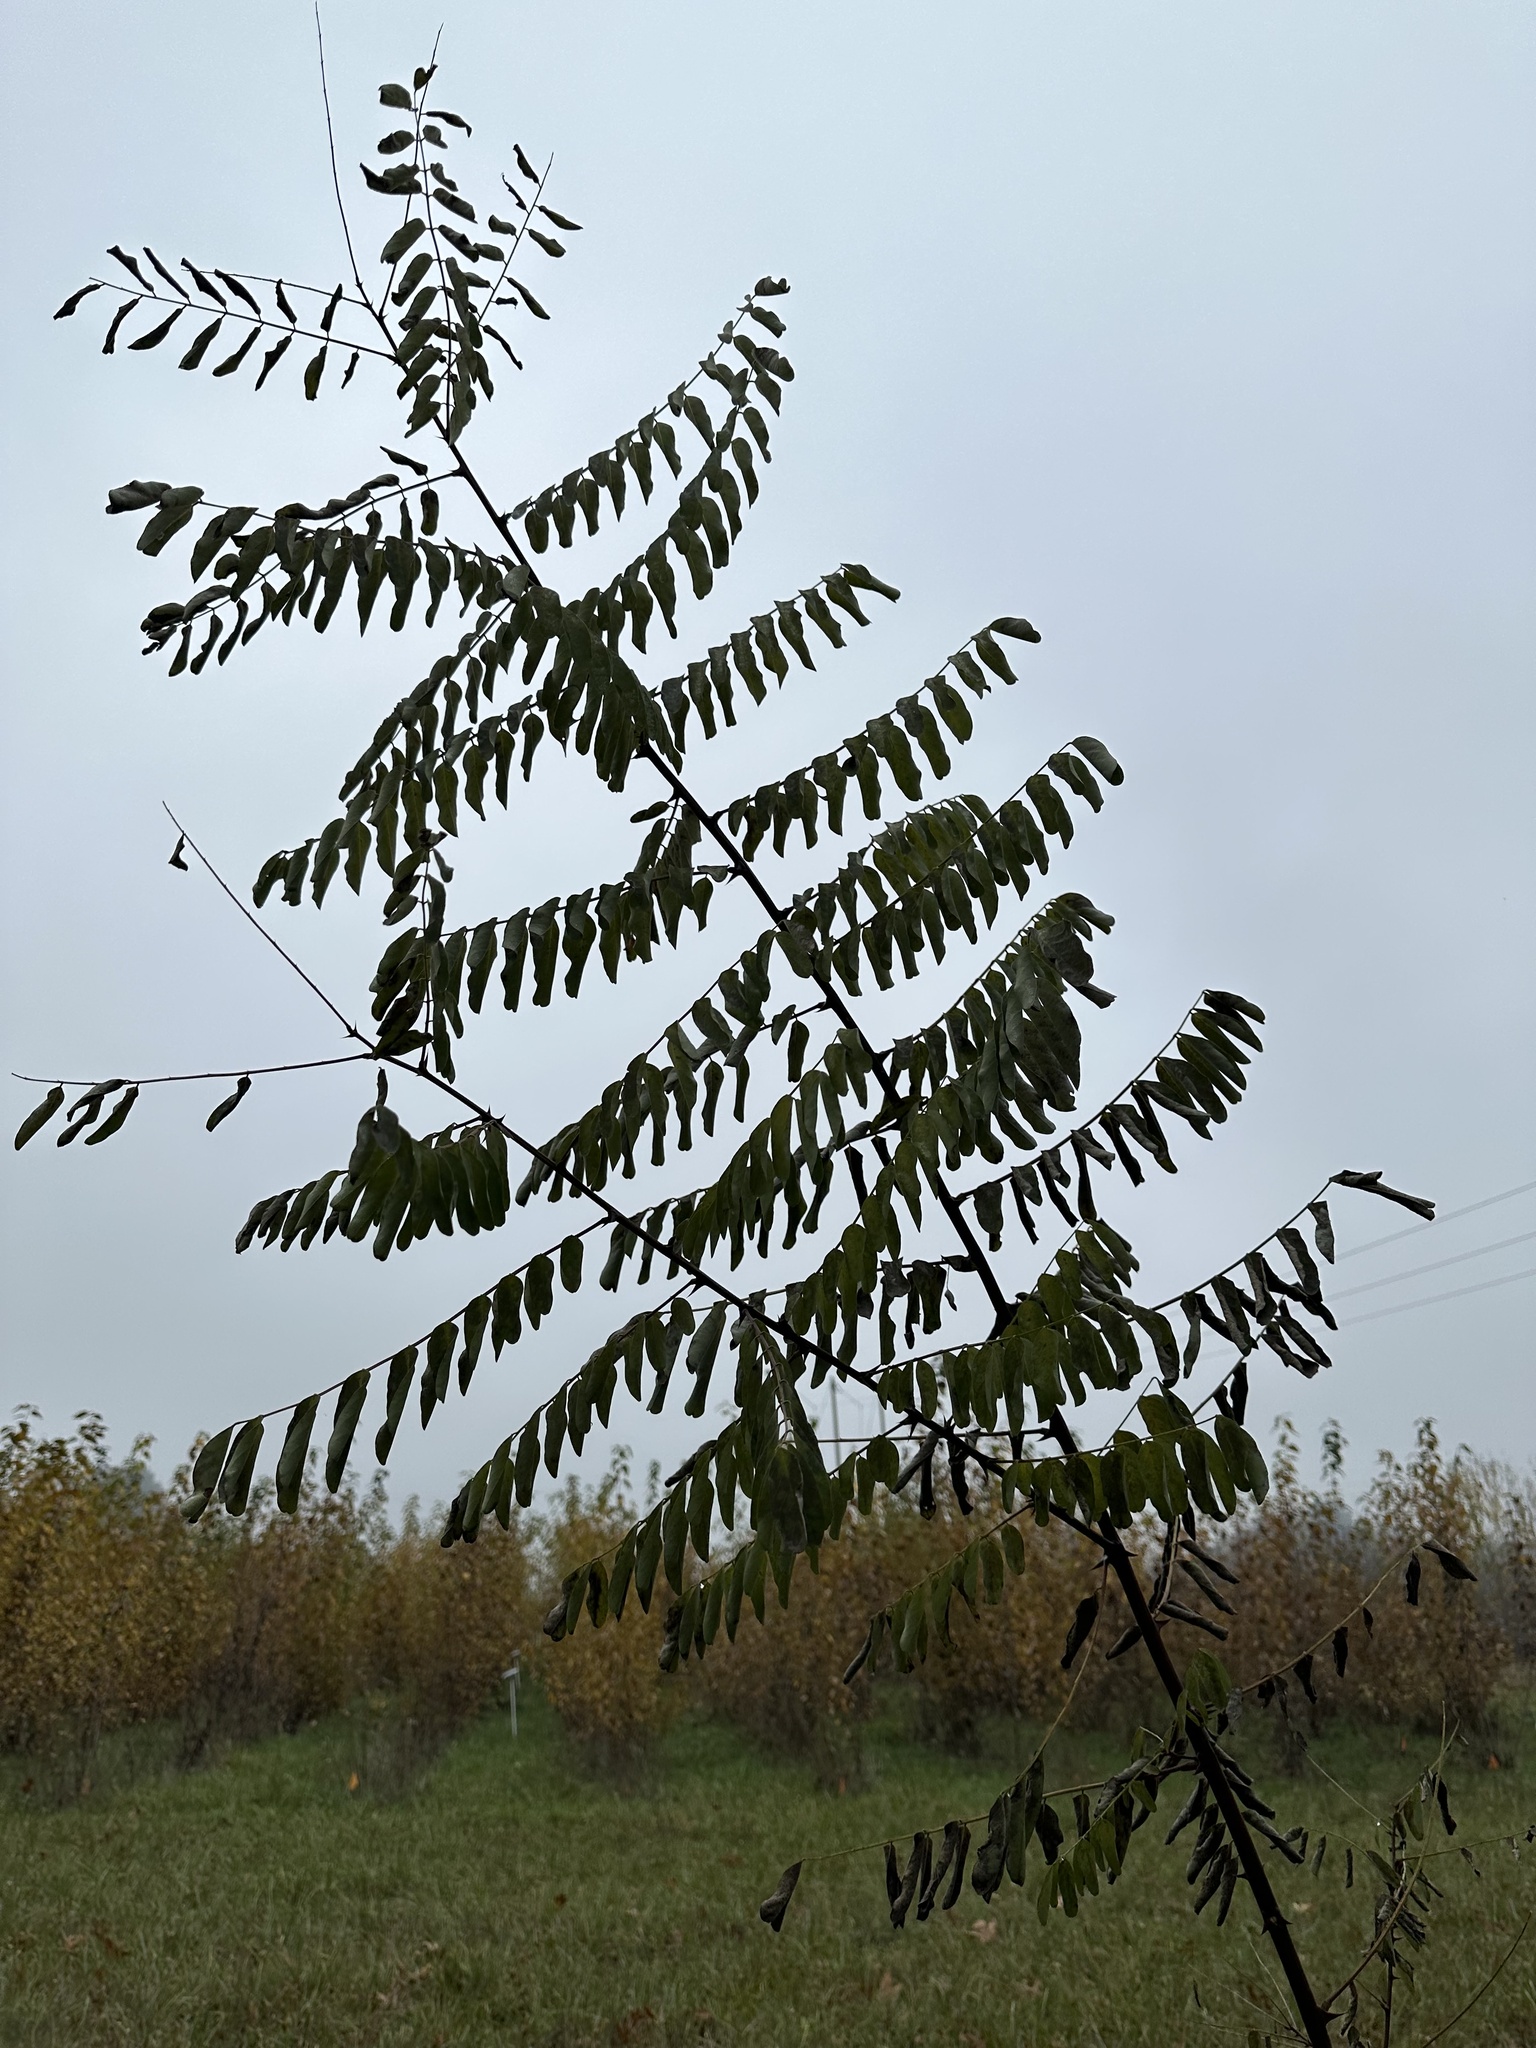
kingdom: Plantae
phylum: Tracheophyta
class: Magnoliopsida
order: Fabales
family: Fabaceae
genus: Robinia
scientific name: Robinia pseudoacacia
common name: Black locust
